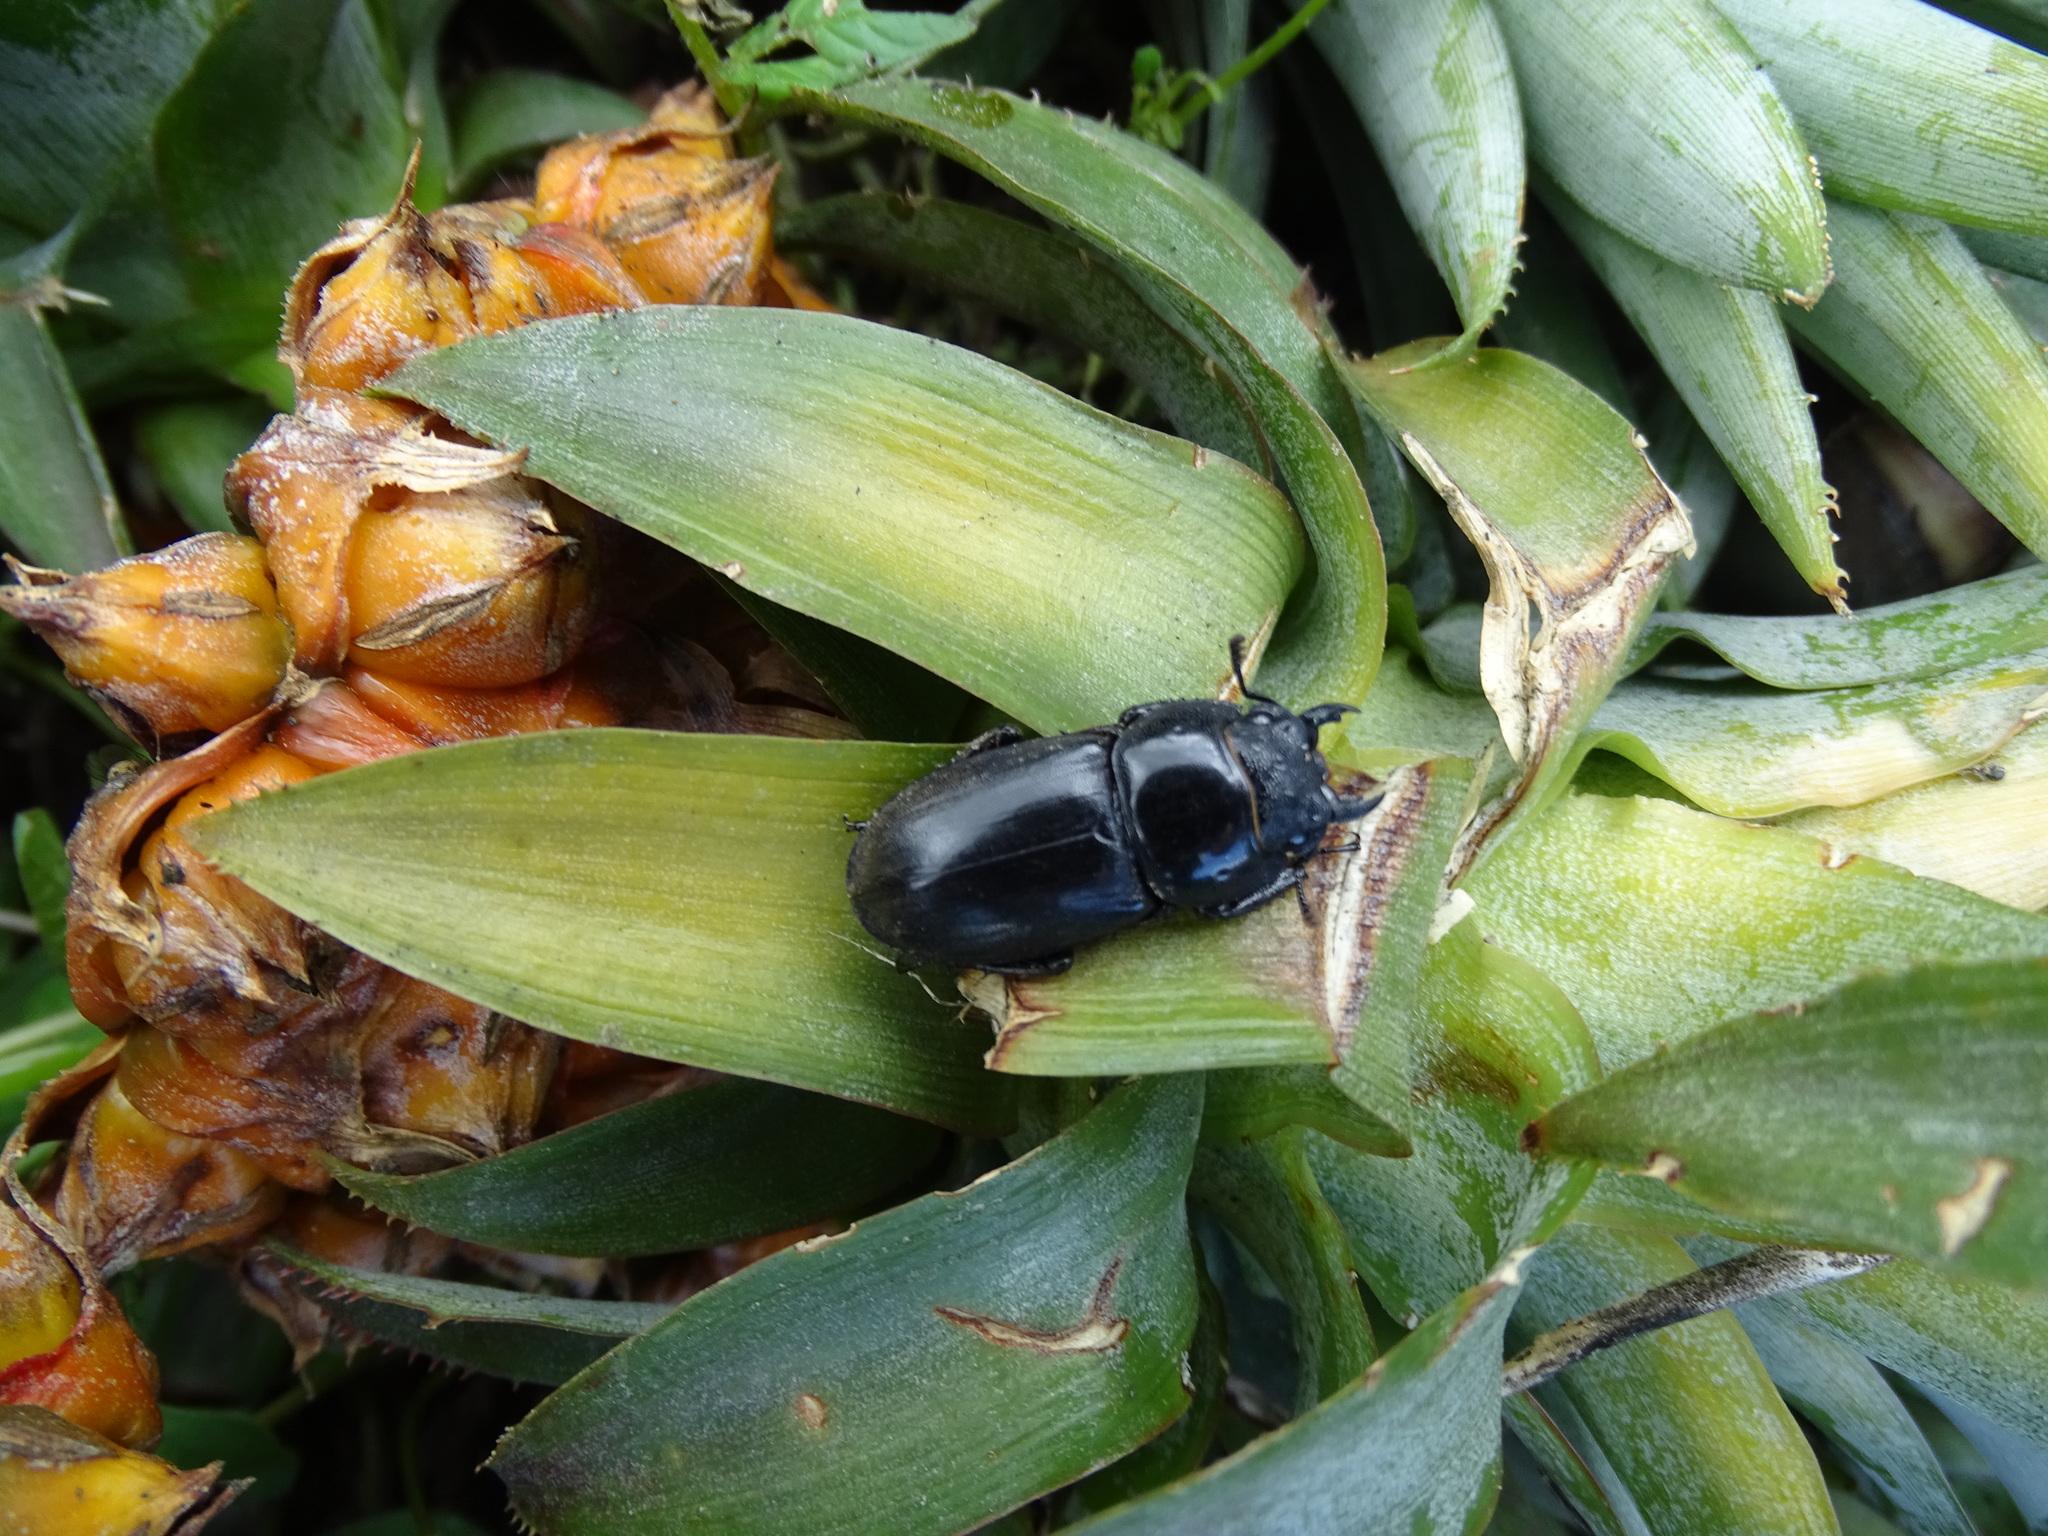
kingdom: Animalia
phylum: Arthropoda
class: Insecta
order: Coleoptera
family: Lucanidae
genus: Serrognathus
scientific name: Serrognathus titanus
